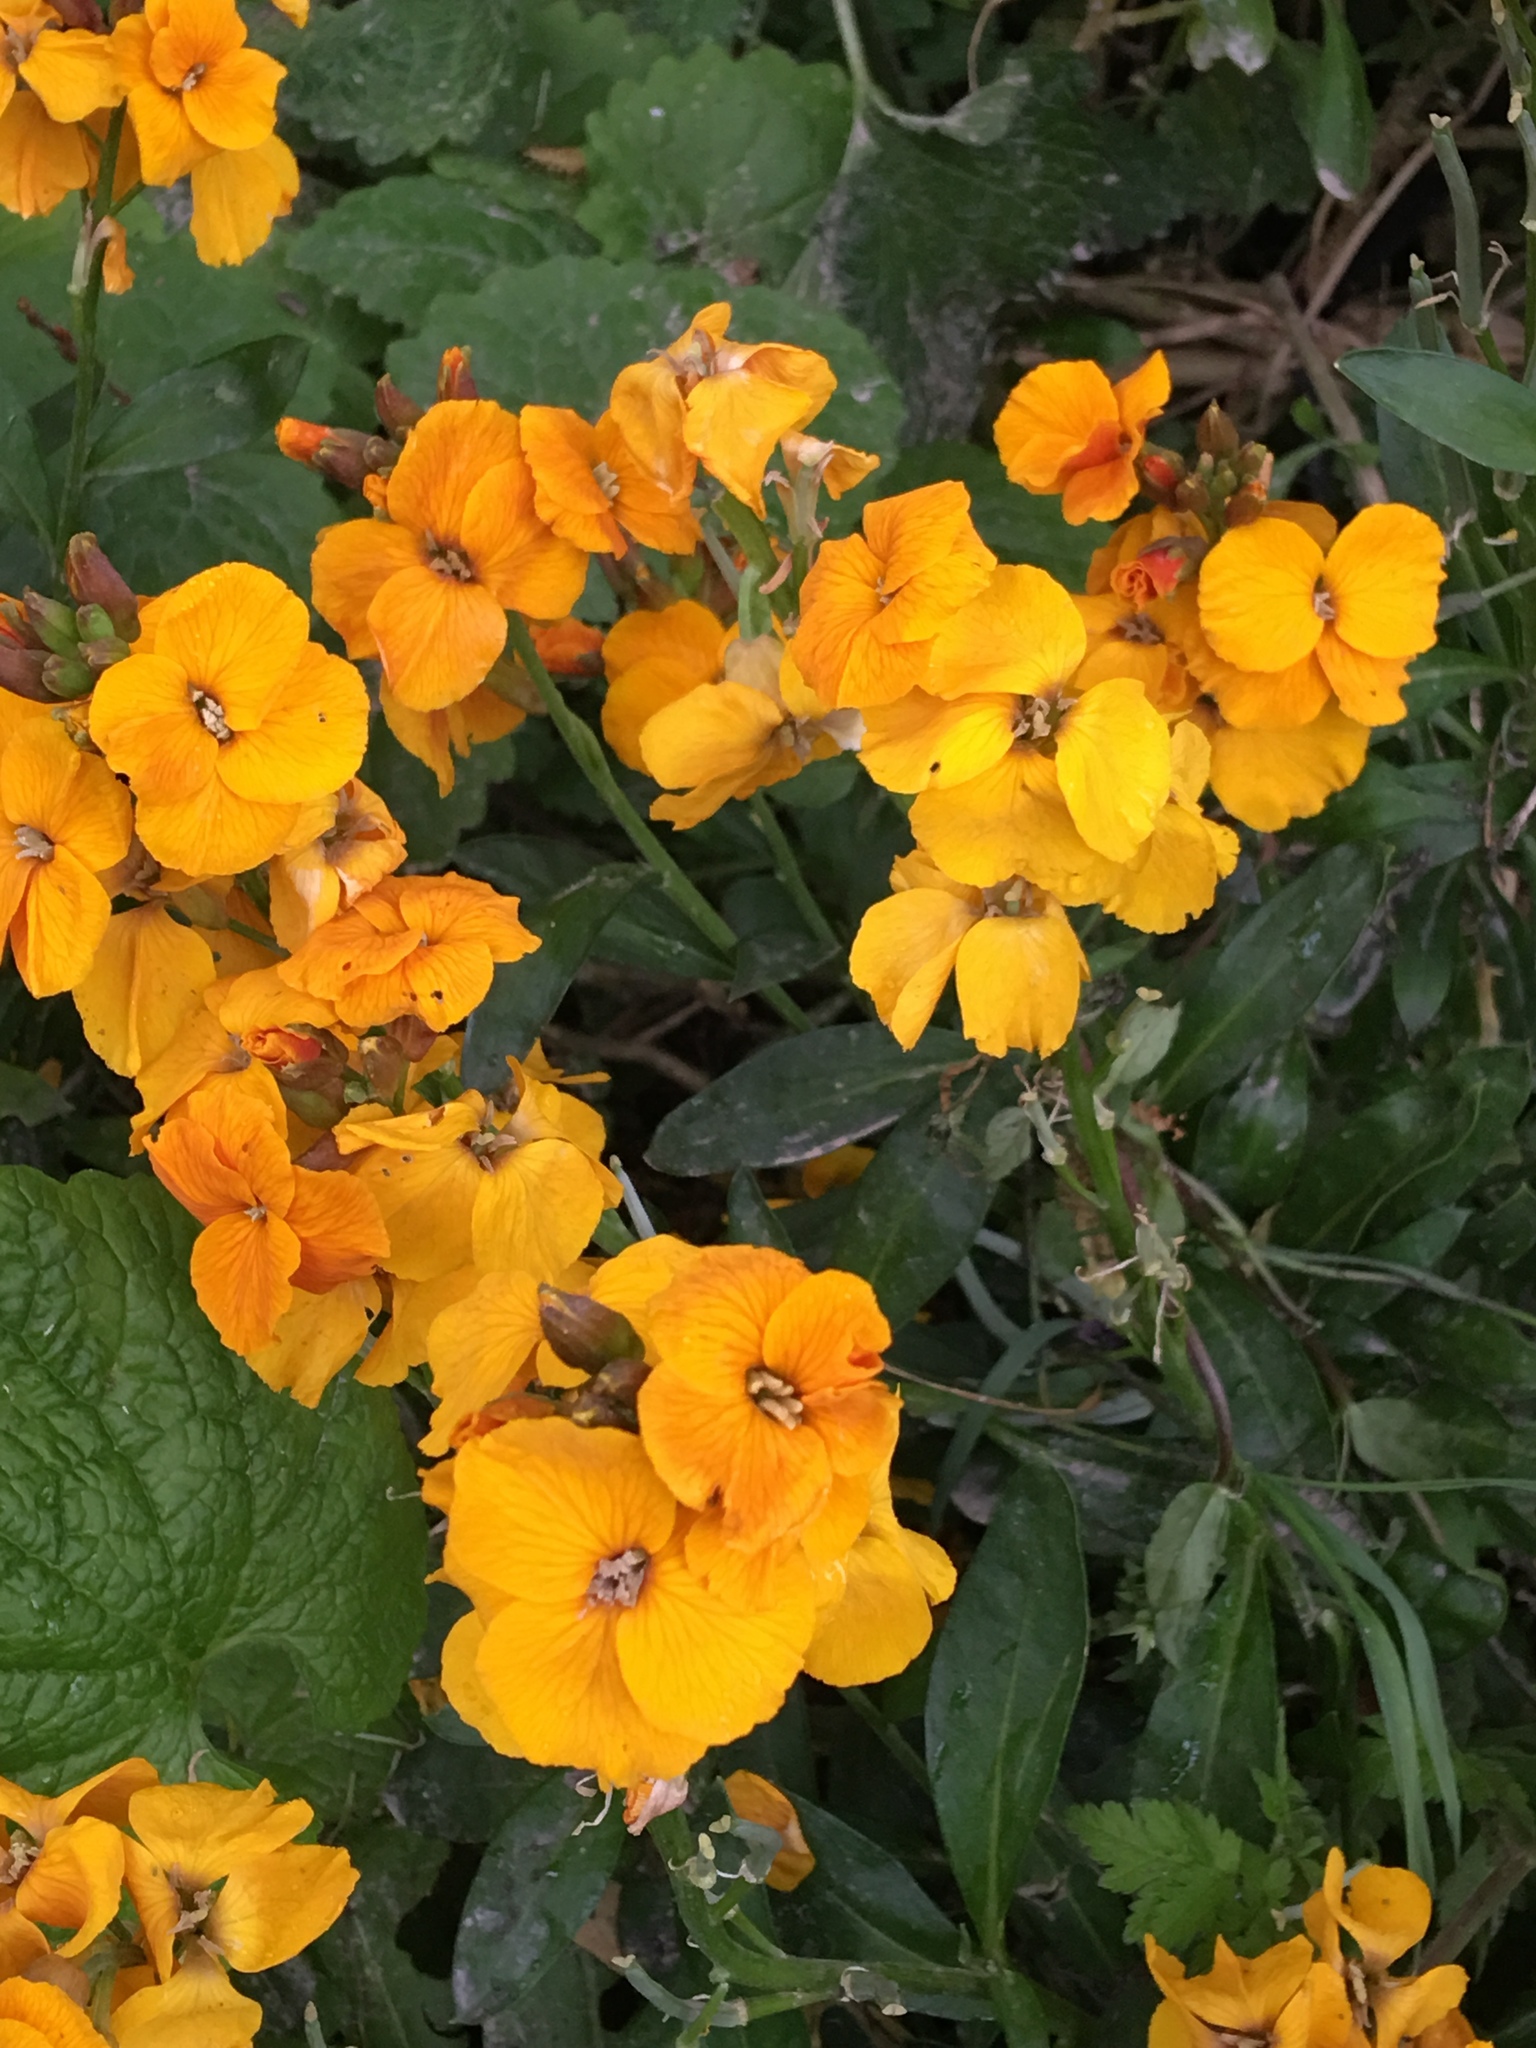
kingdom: Plantae
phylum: Tracheophyta
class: Magnoliopsida
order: Brassicales
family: Brassicaceae
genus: Erysimum
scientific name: Erysimum cheiri
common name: Wallflower
